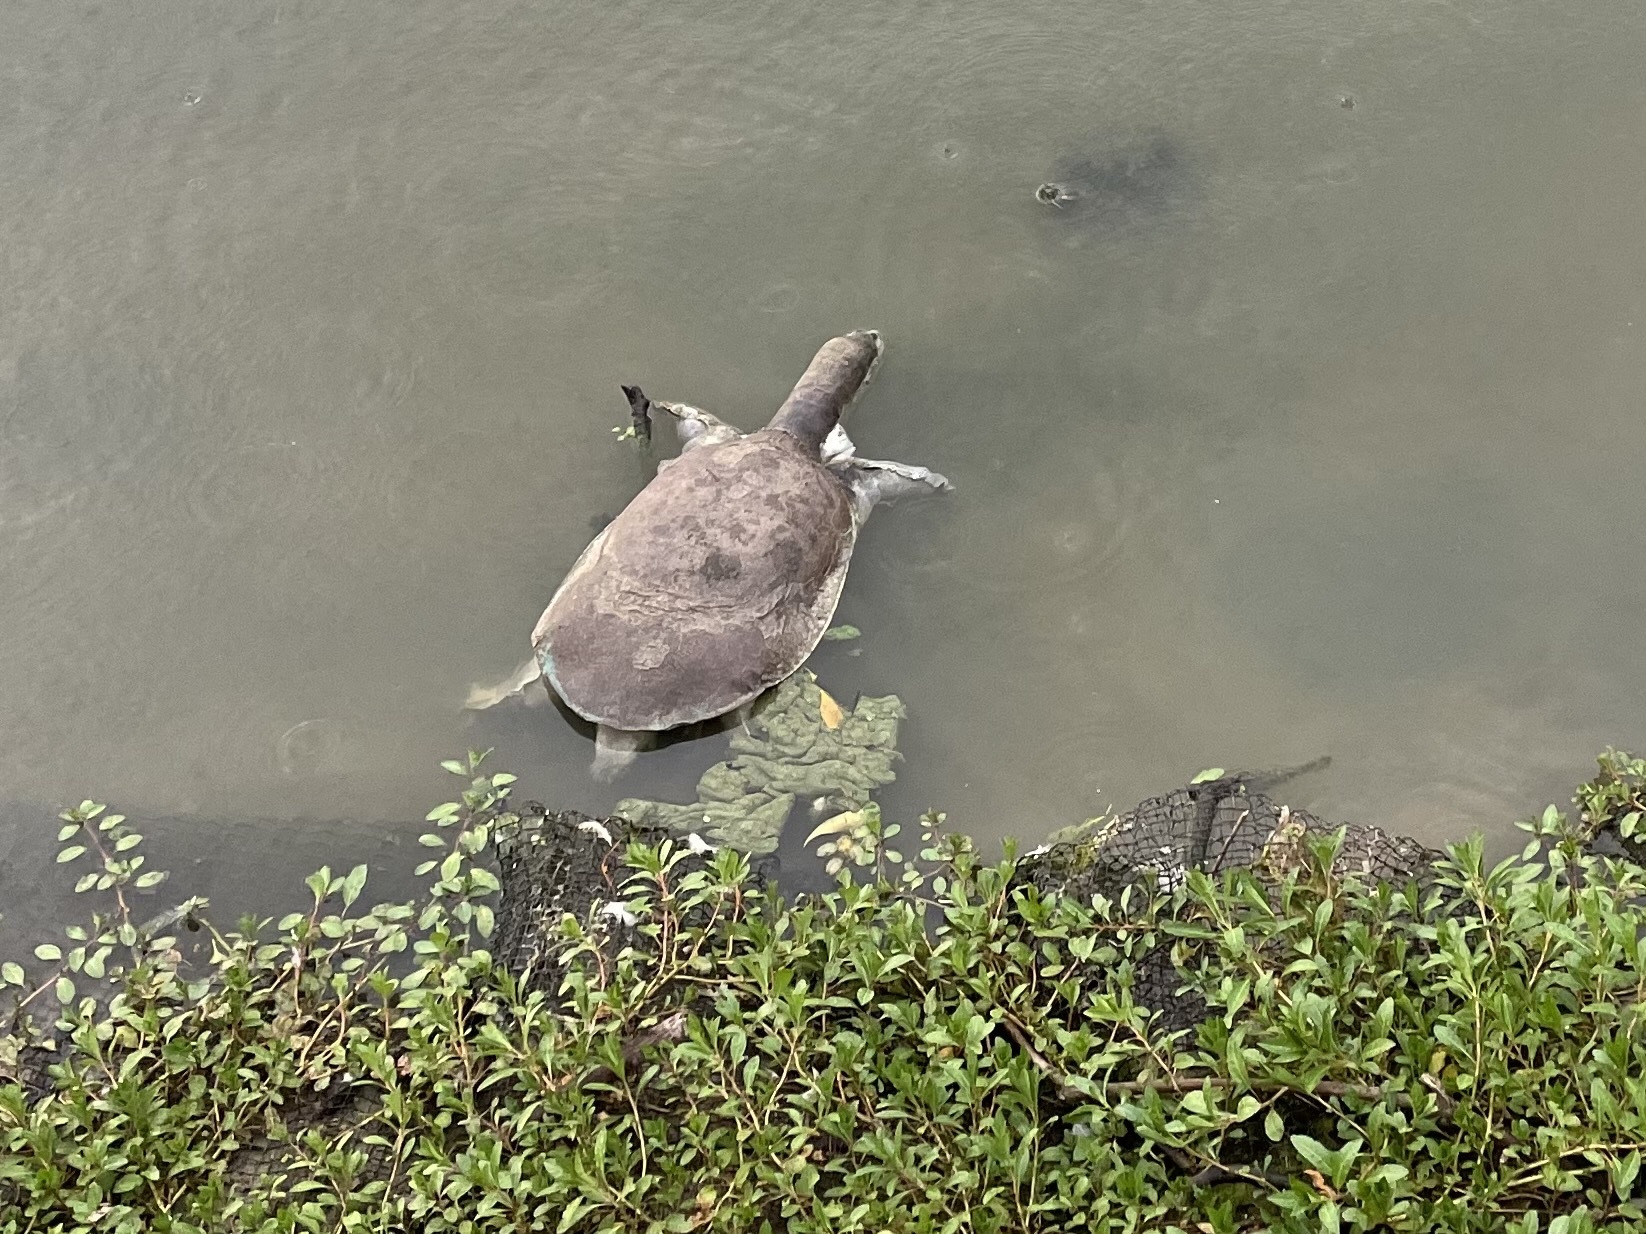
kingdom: Animalia
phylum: Chordata
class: Testudines
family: Trionychidae
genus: Apalone
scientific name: Apalone spinifera
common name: Spiny softshell turtle
